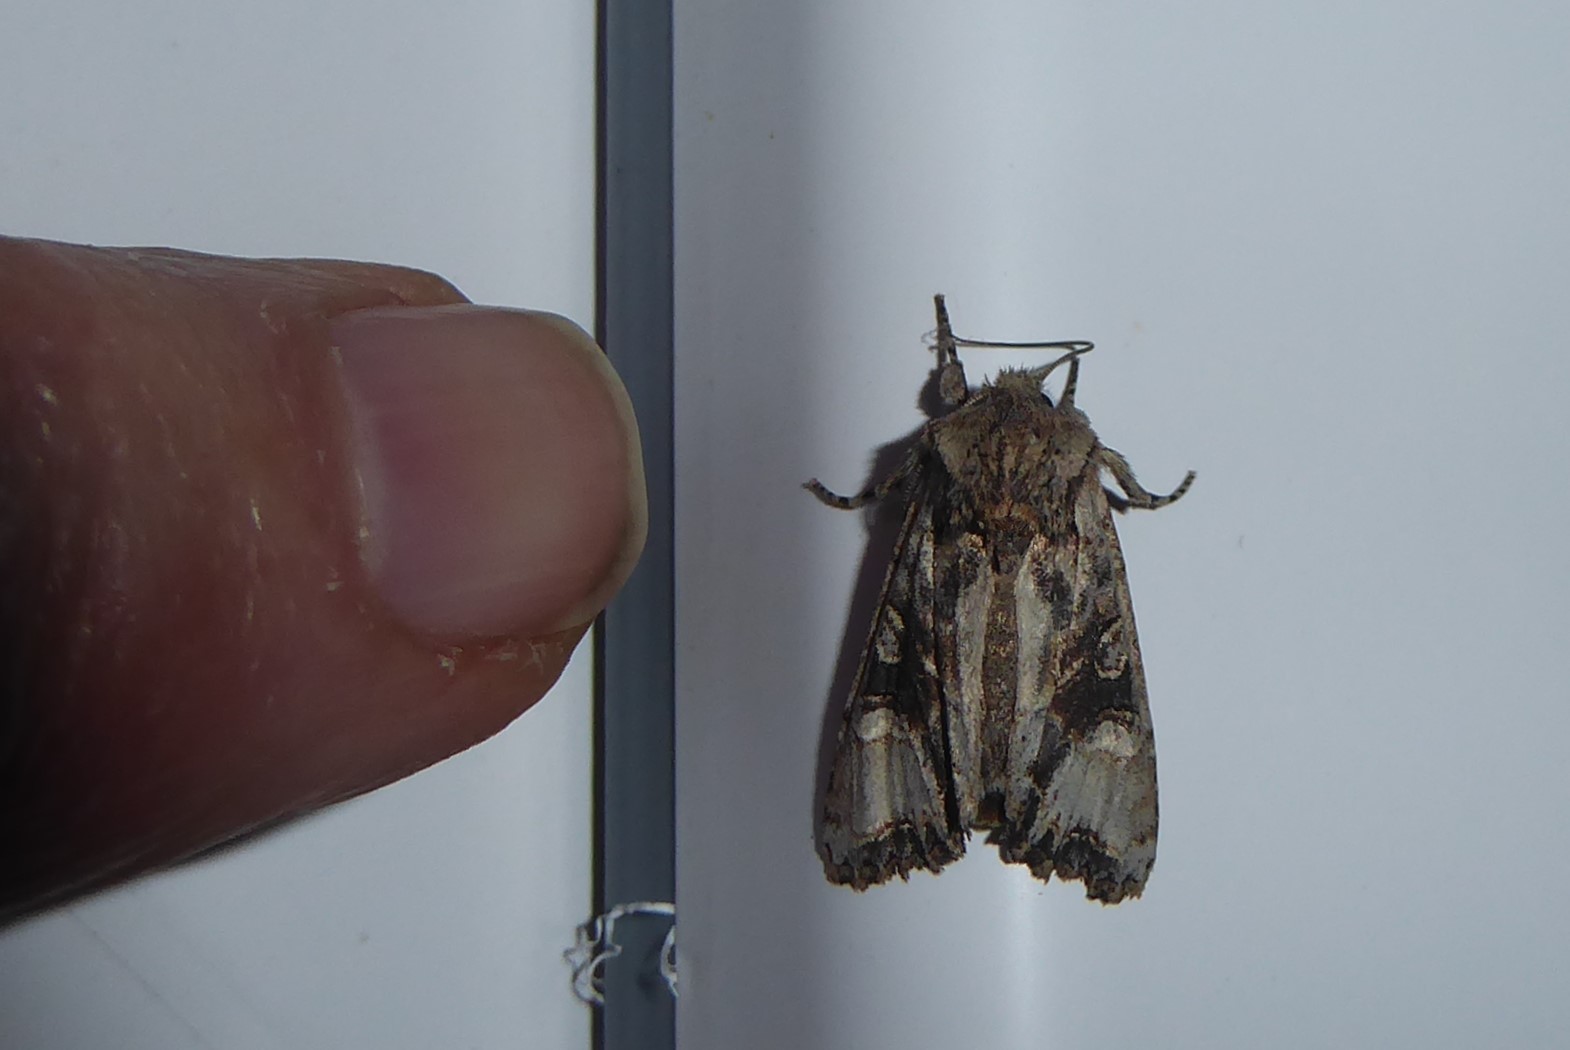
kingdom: Animalia
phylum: Arthropoda
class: Insecta
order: Lepidoptera
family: Noctuidae
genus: Ichneutica
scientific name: Ichneutica
